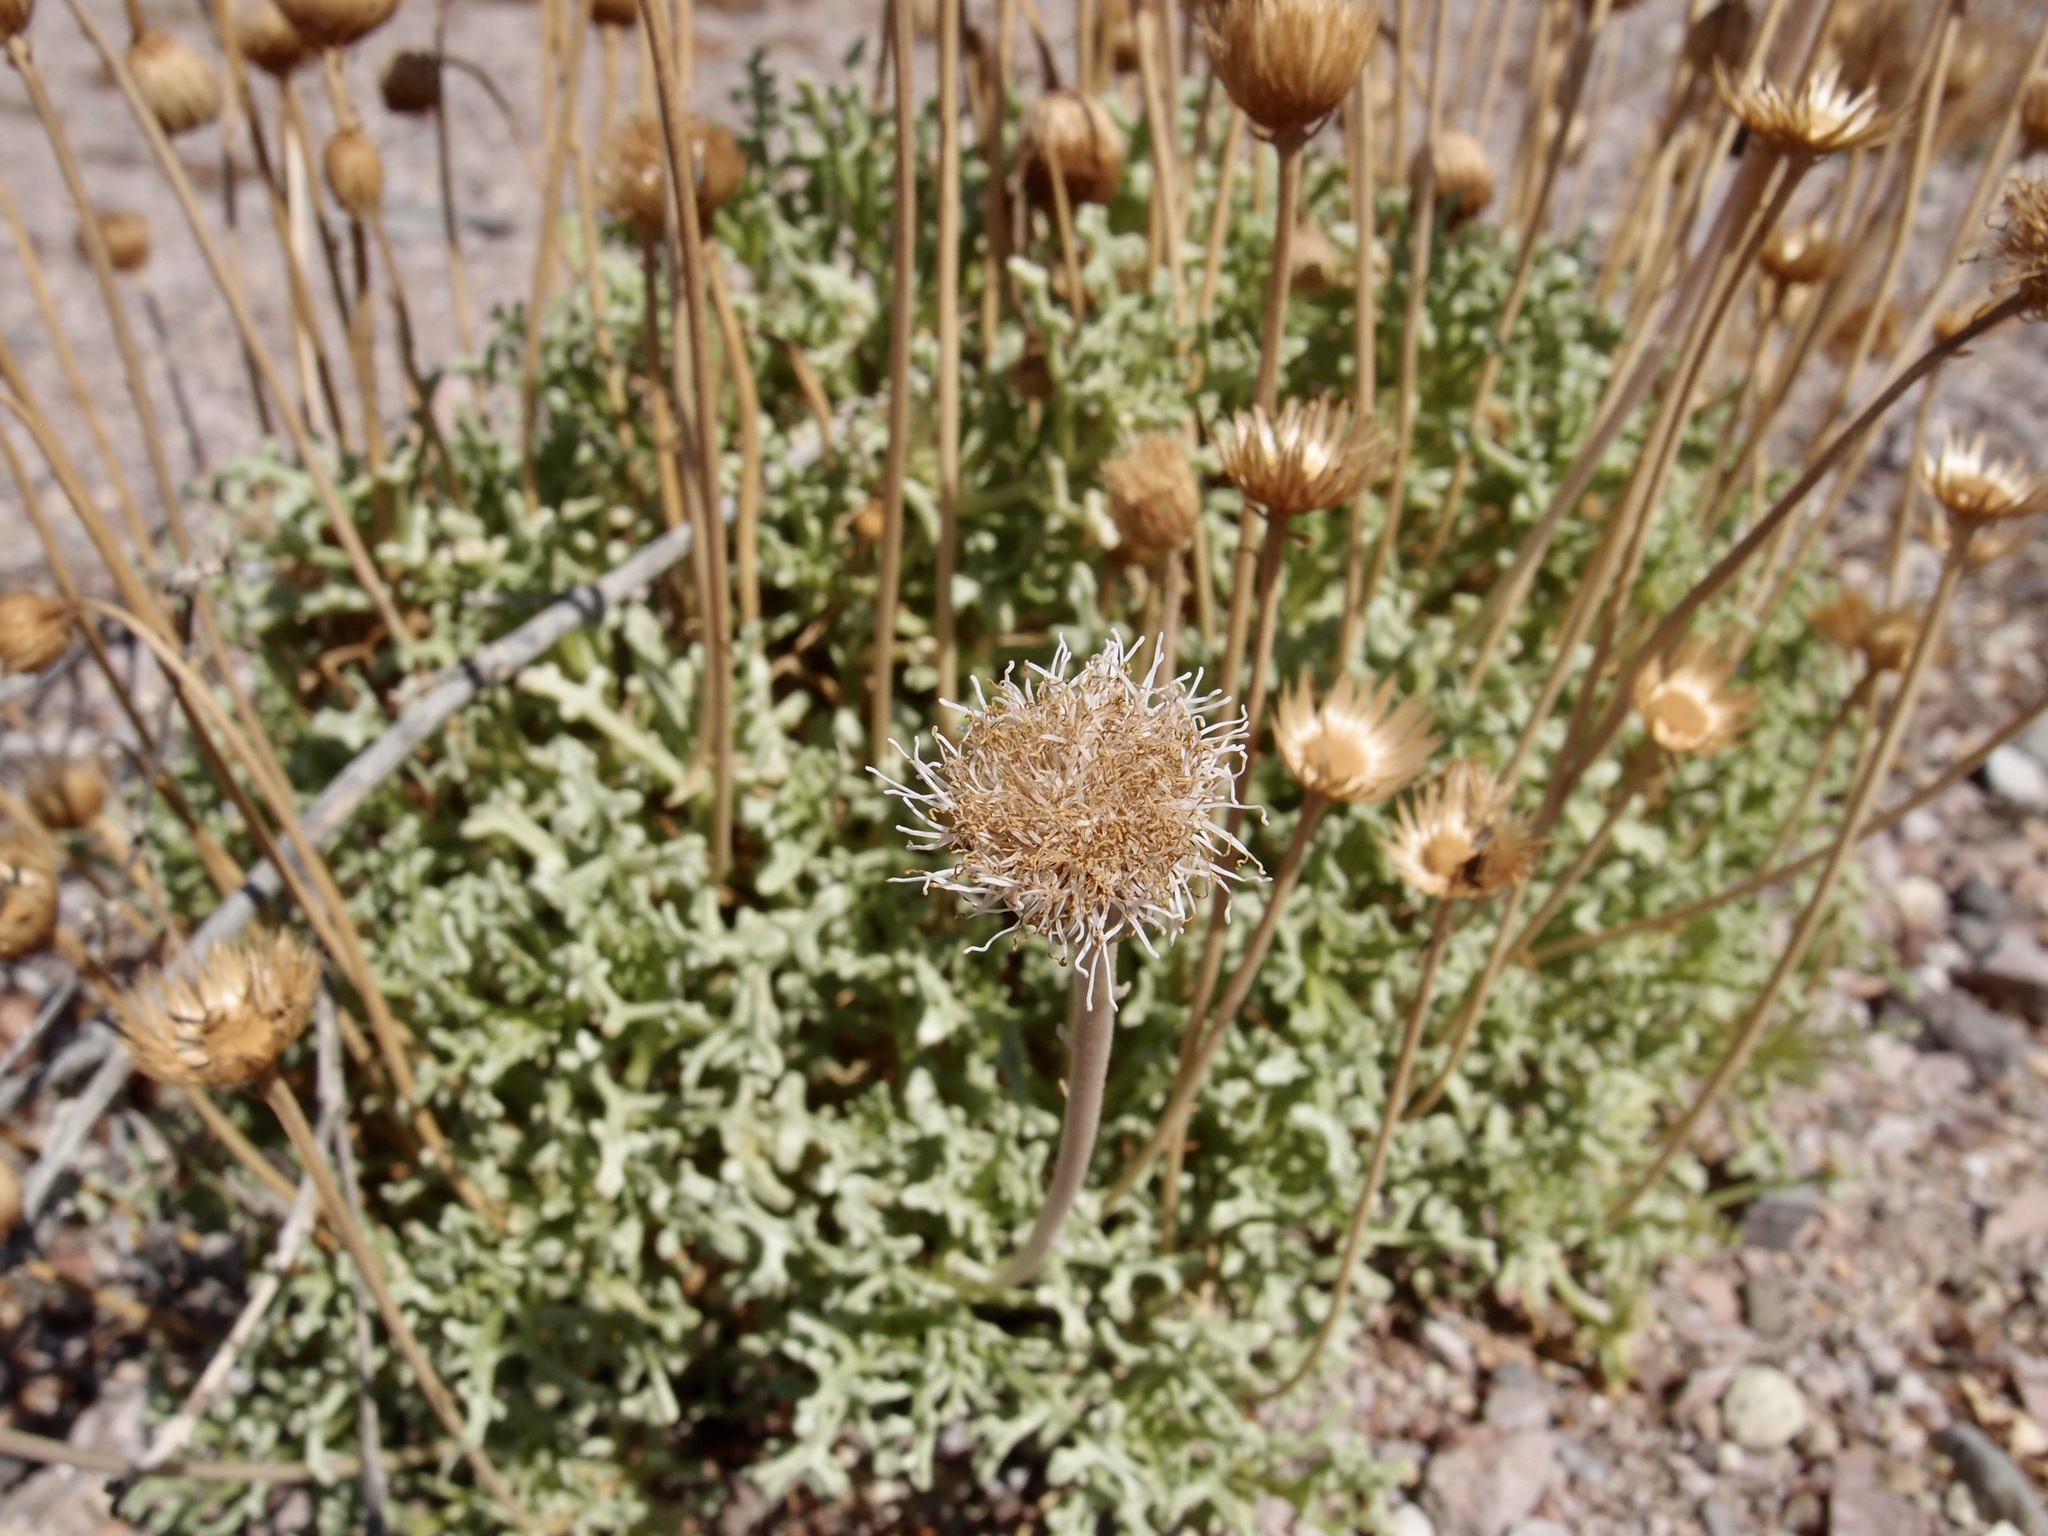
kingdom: Plantae
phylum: Tracheophyta
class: Magnoliopsida
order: Asterales
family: Asteraceae
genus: Hofmeisteria
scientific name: Hofmeisteria crassifolia
